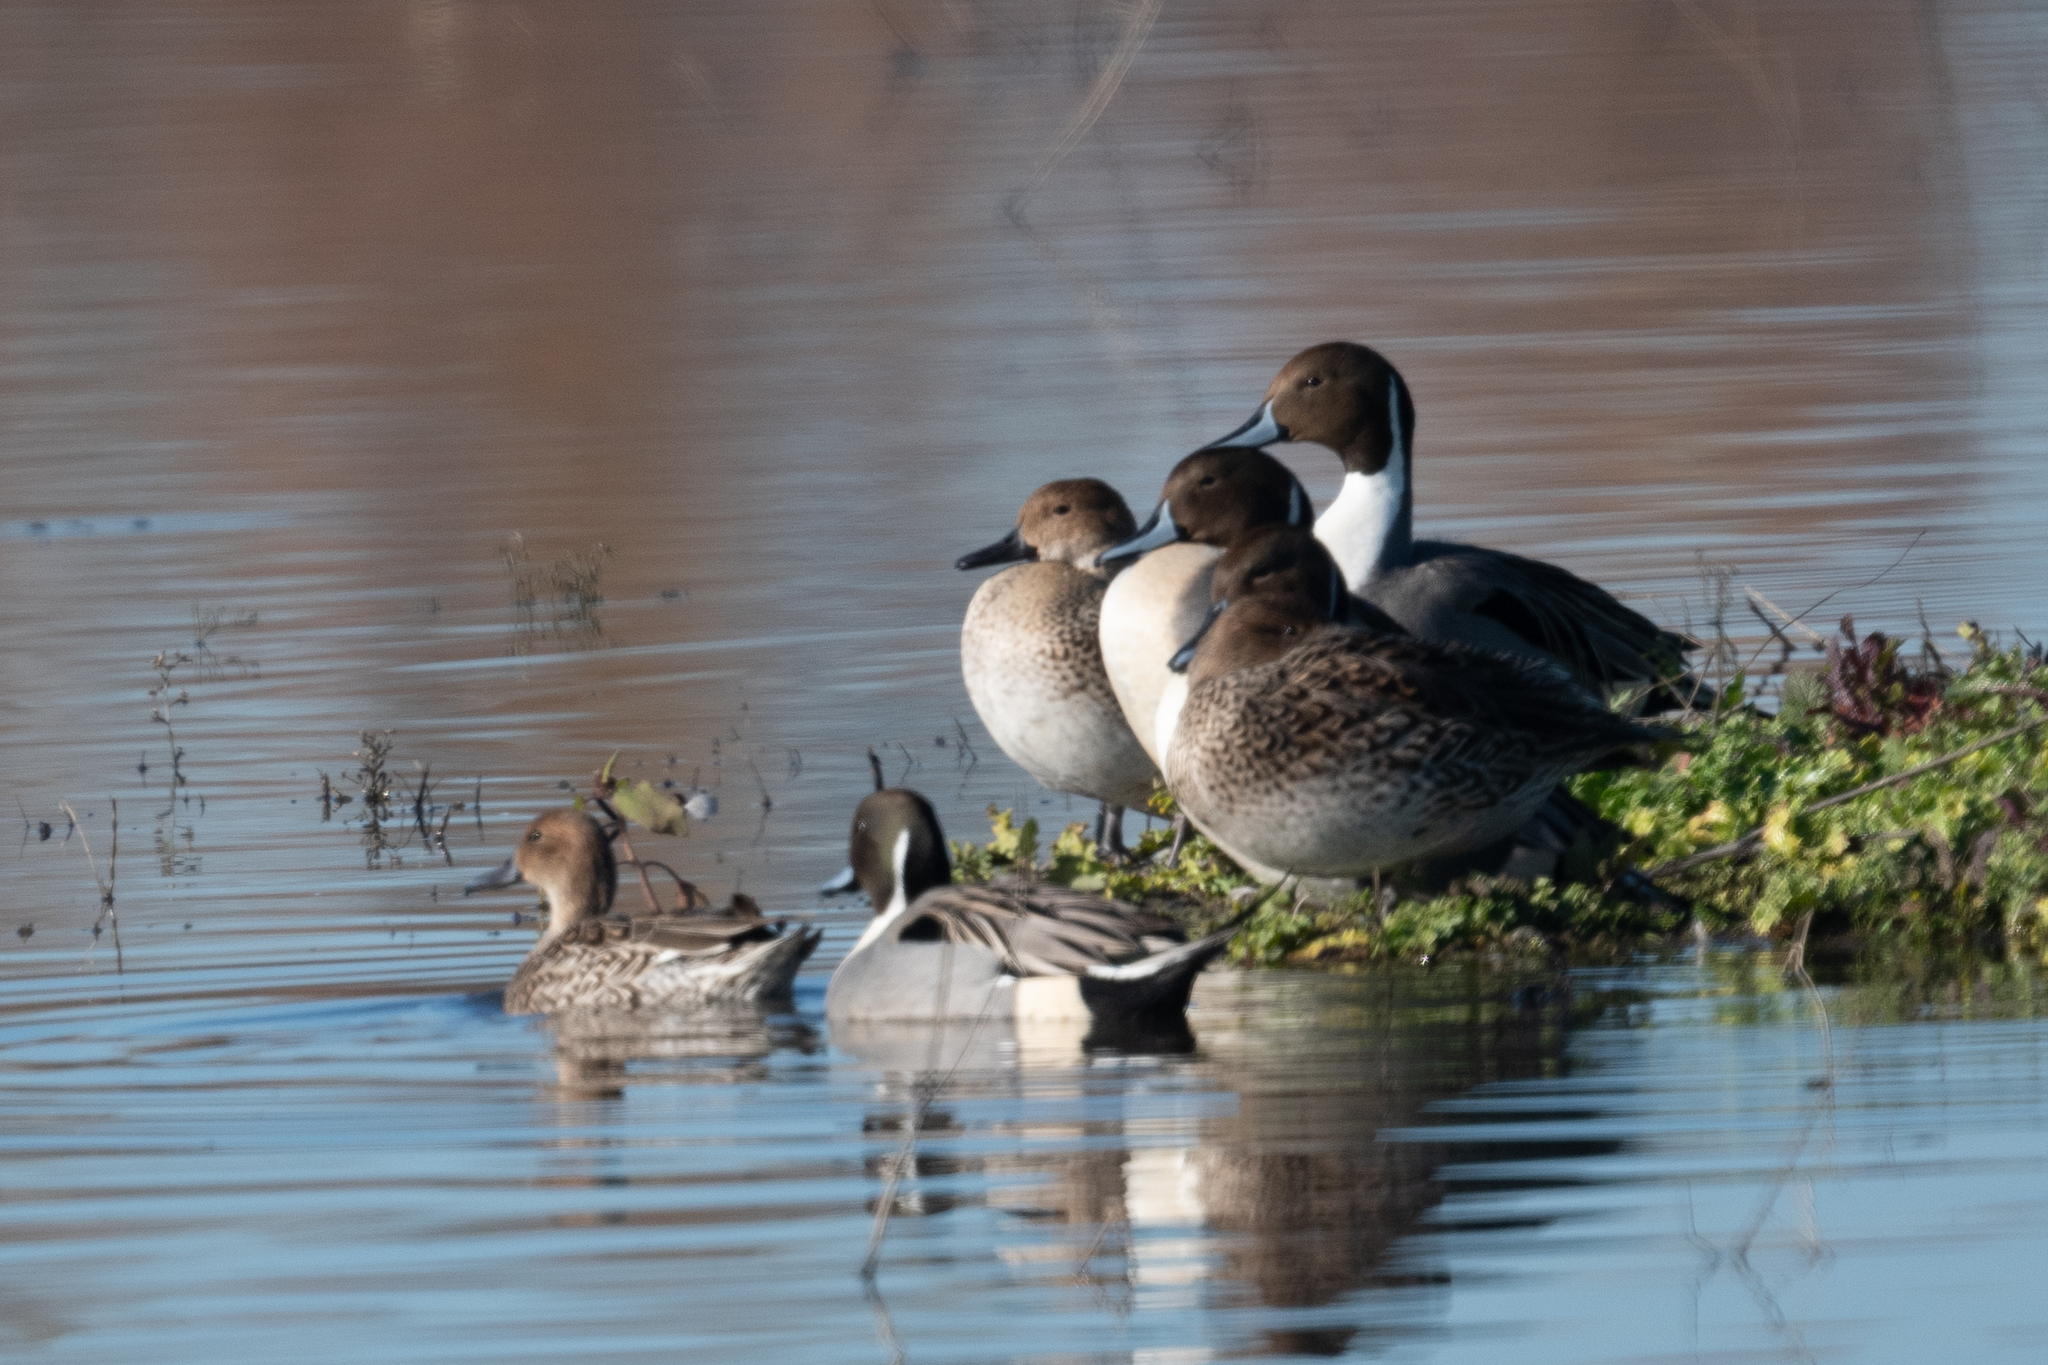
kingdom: Animalia
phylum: Chordata
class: Aves
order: Anseriformes
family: Anatidae
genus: Anas
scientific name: Anas acuta
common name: Northern pintail
